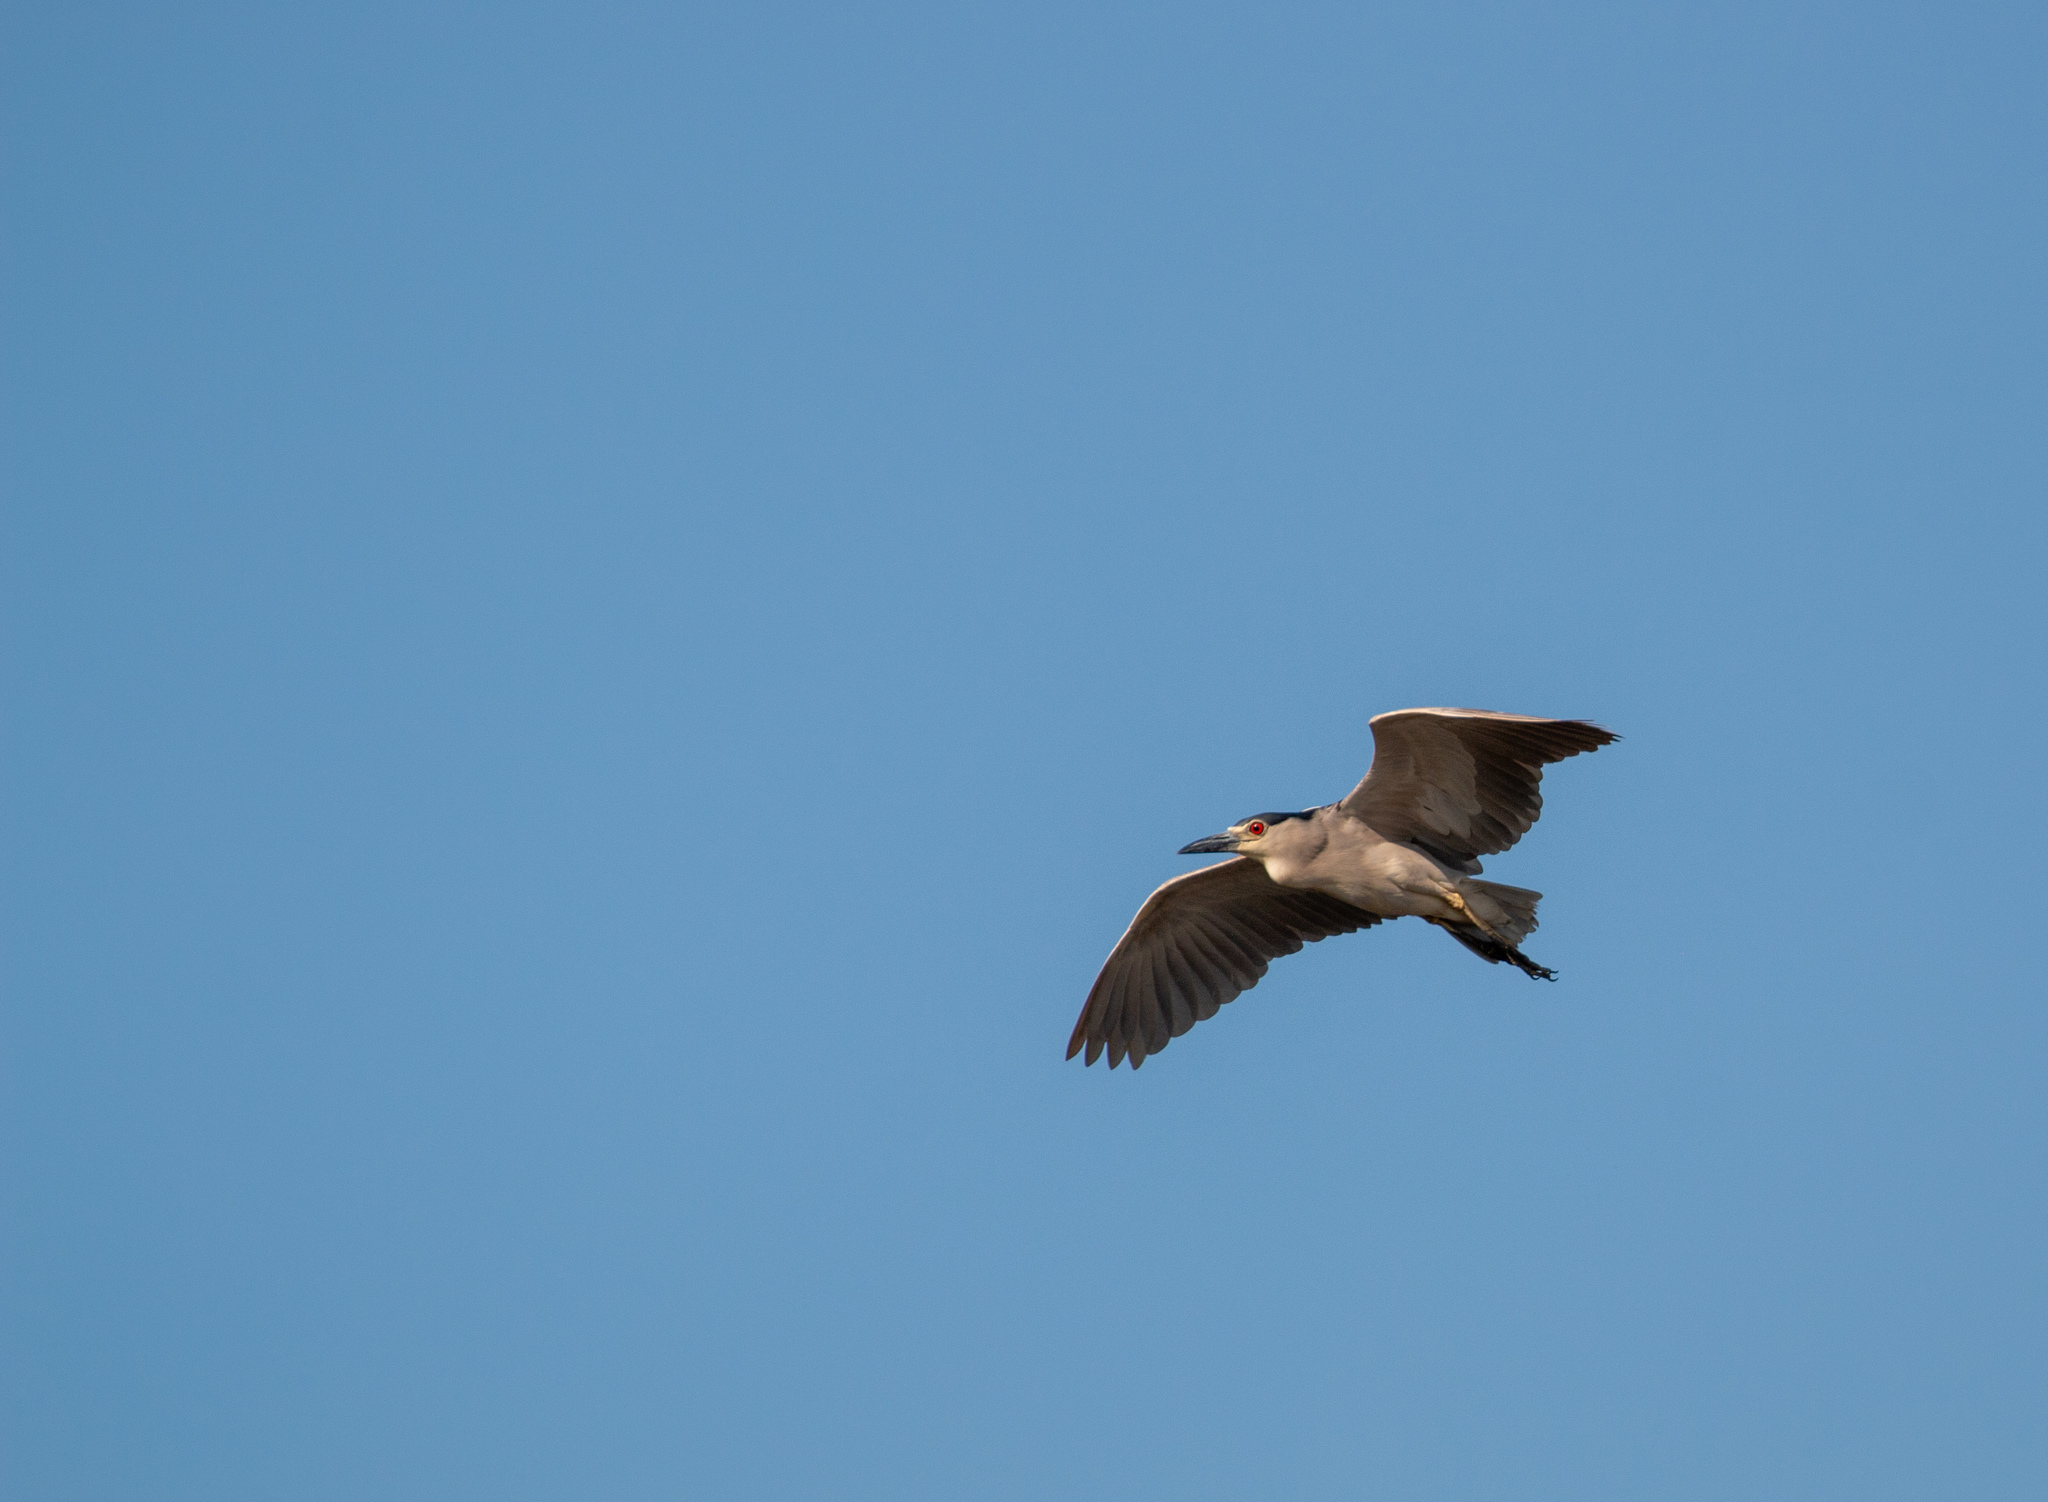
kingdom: Animalia
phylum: Chordata
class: Aves
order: Pelecaniformes
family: Ardeidae
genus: Nycticorax
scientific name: Nycticorax nycticorax
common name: Black-crowned night heron
